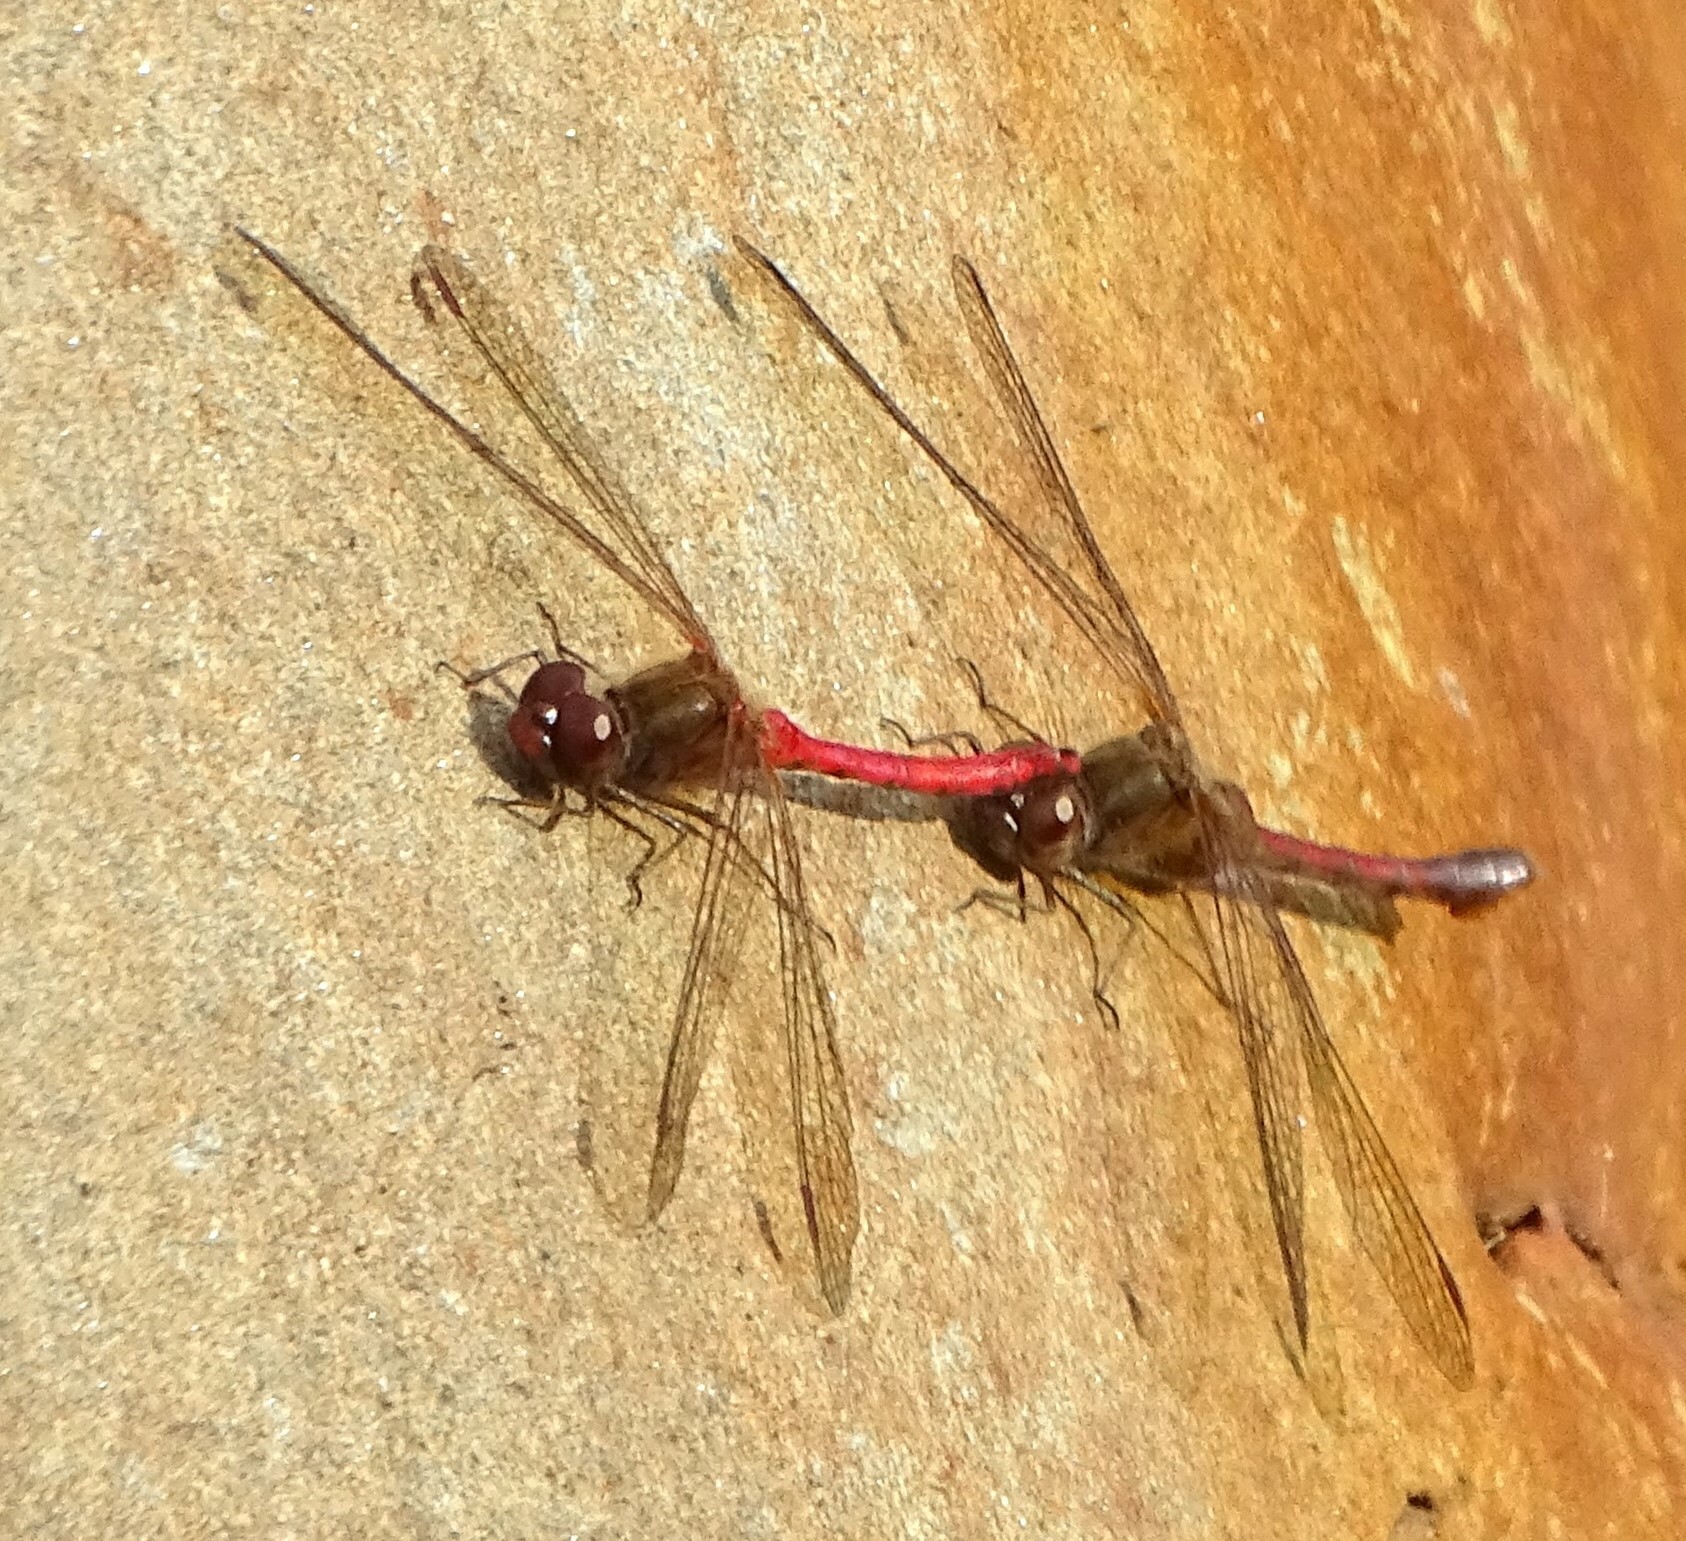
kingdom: Animalia
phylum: Arthropoda
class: Insecta
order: Odonata
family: Libellulidae
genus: Sympetrum
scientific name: Sympetrum vicinum
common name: Autumn meadowhawk
